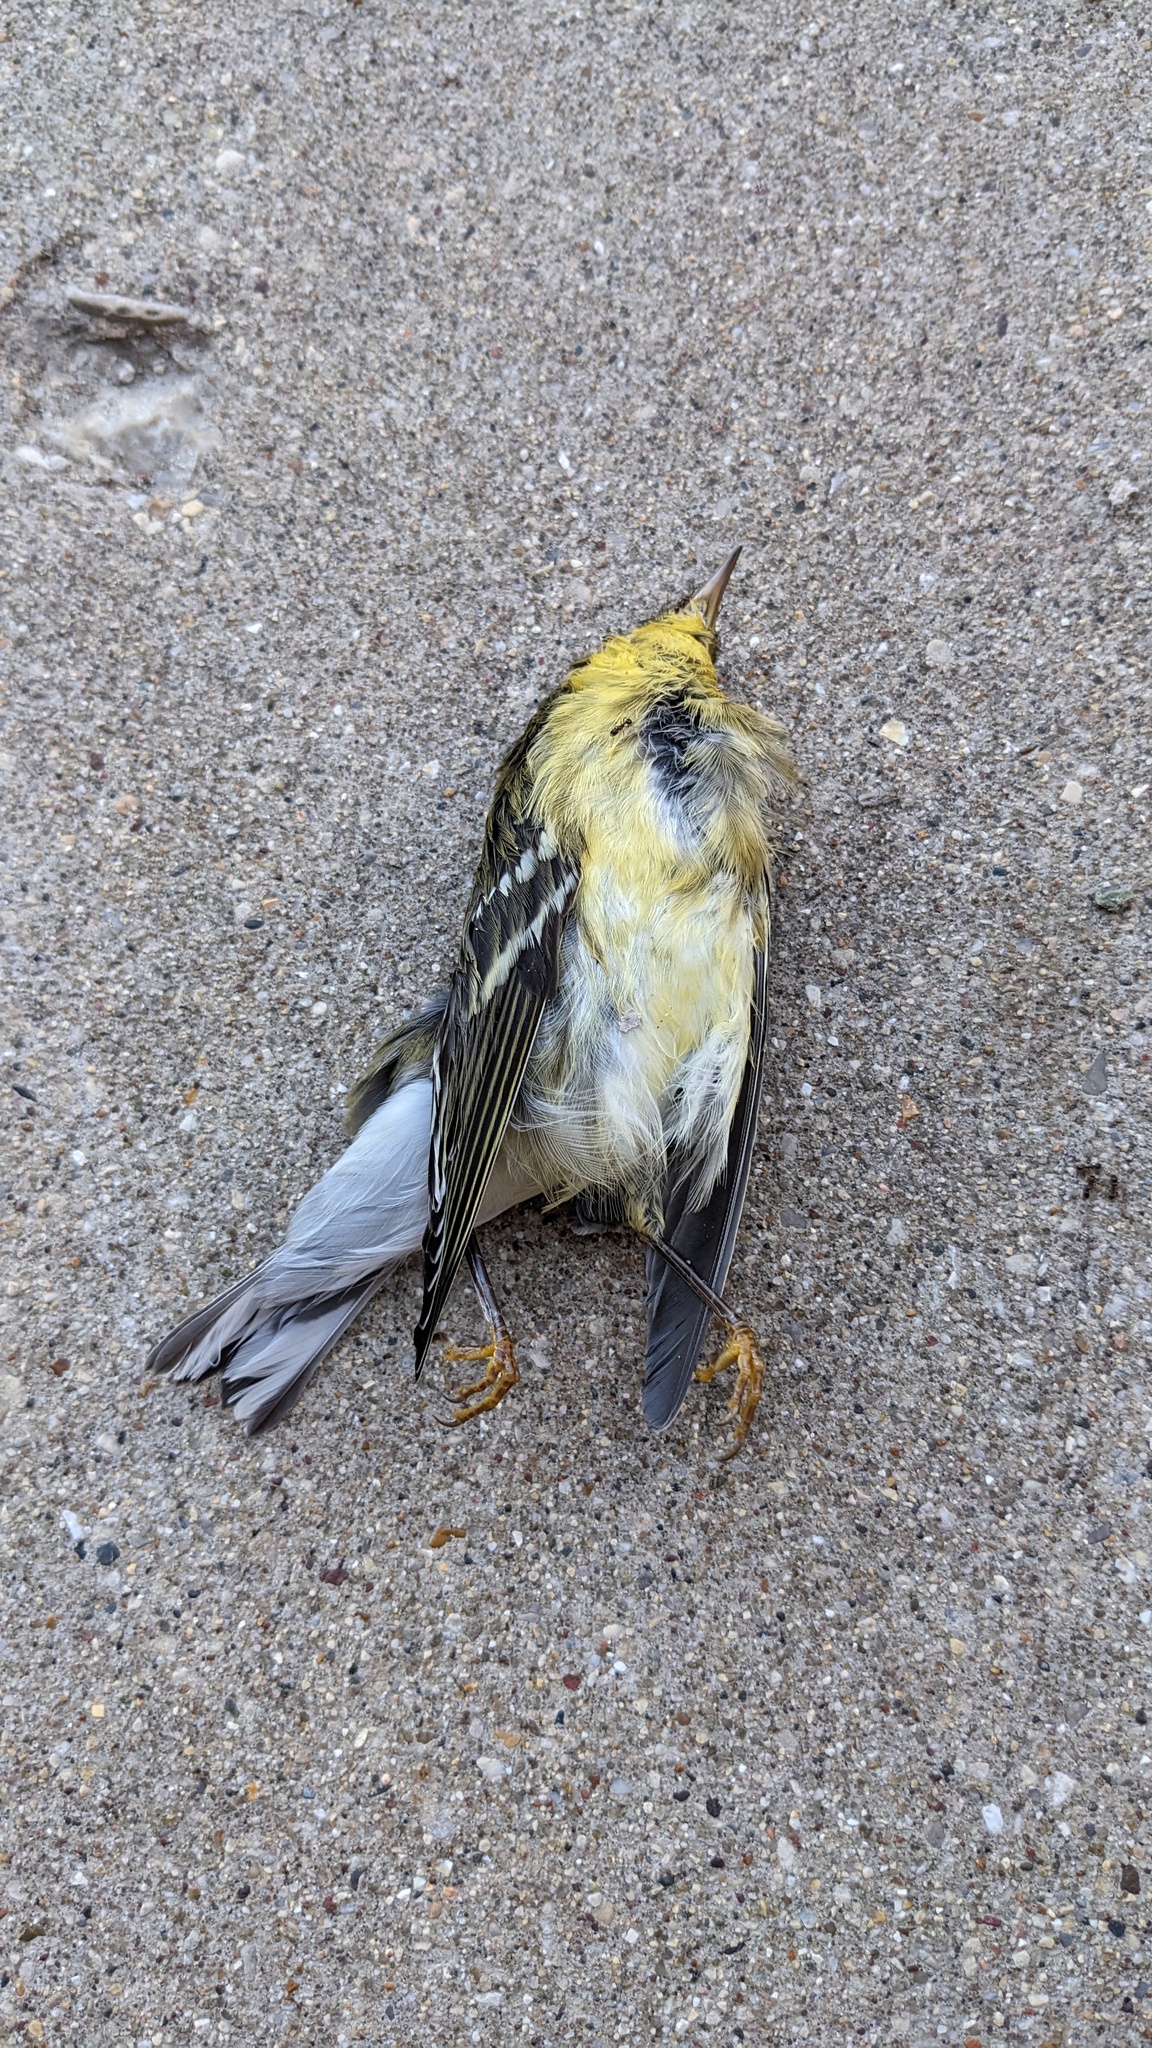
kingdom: Animalia
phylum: Chordata
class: Aves
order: Passeriformes
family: Parulidae
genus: Setophaga
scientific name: Setophaga striata
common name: Blackpoll warbler
